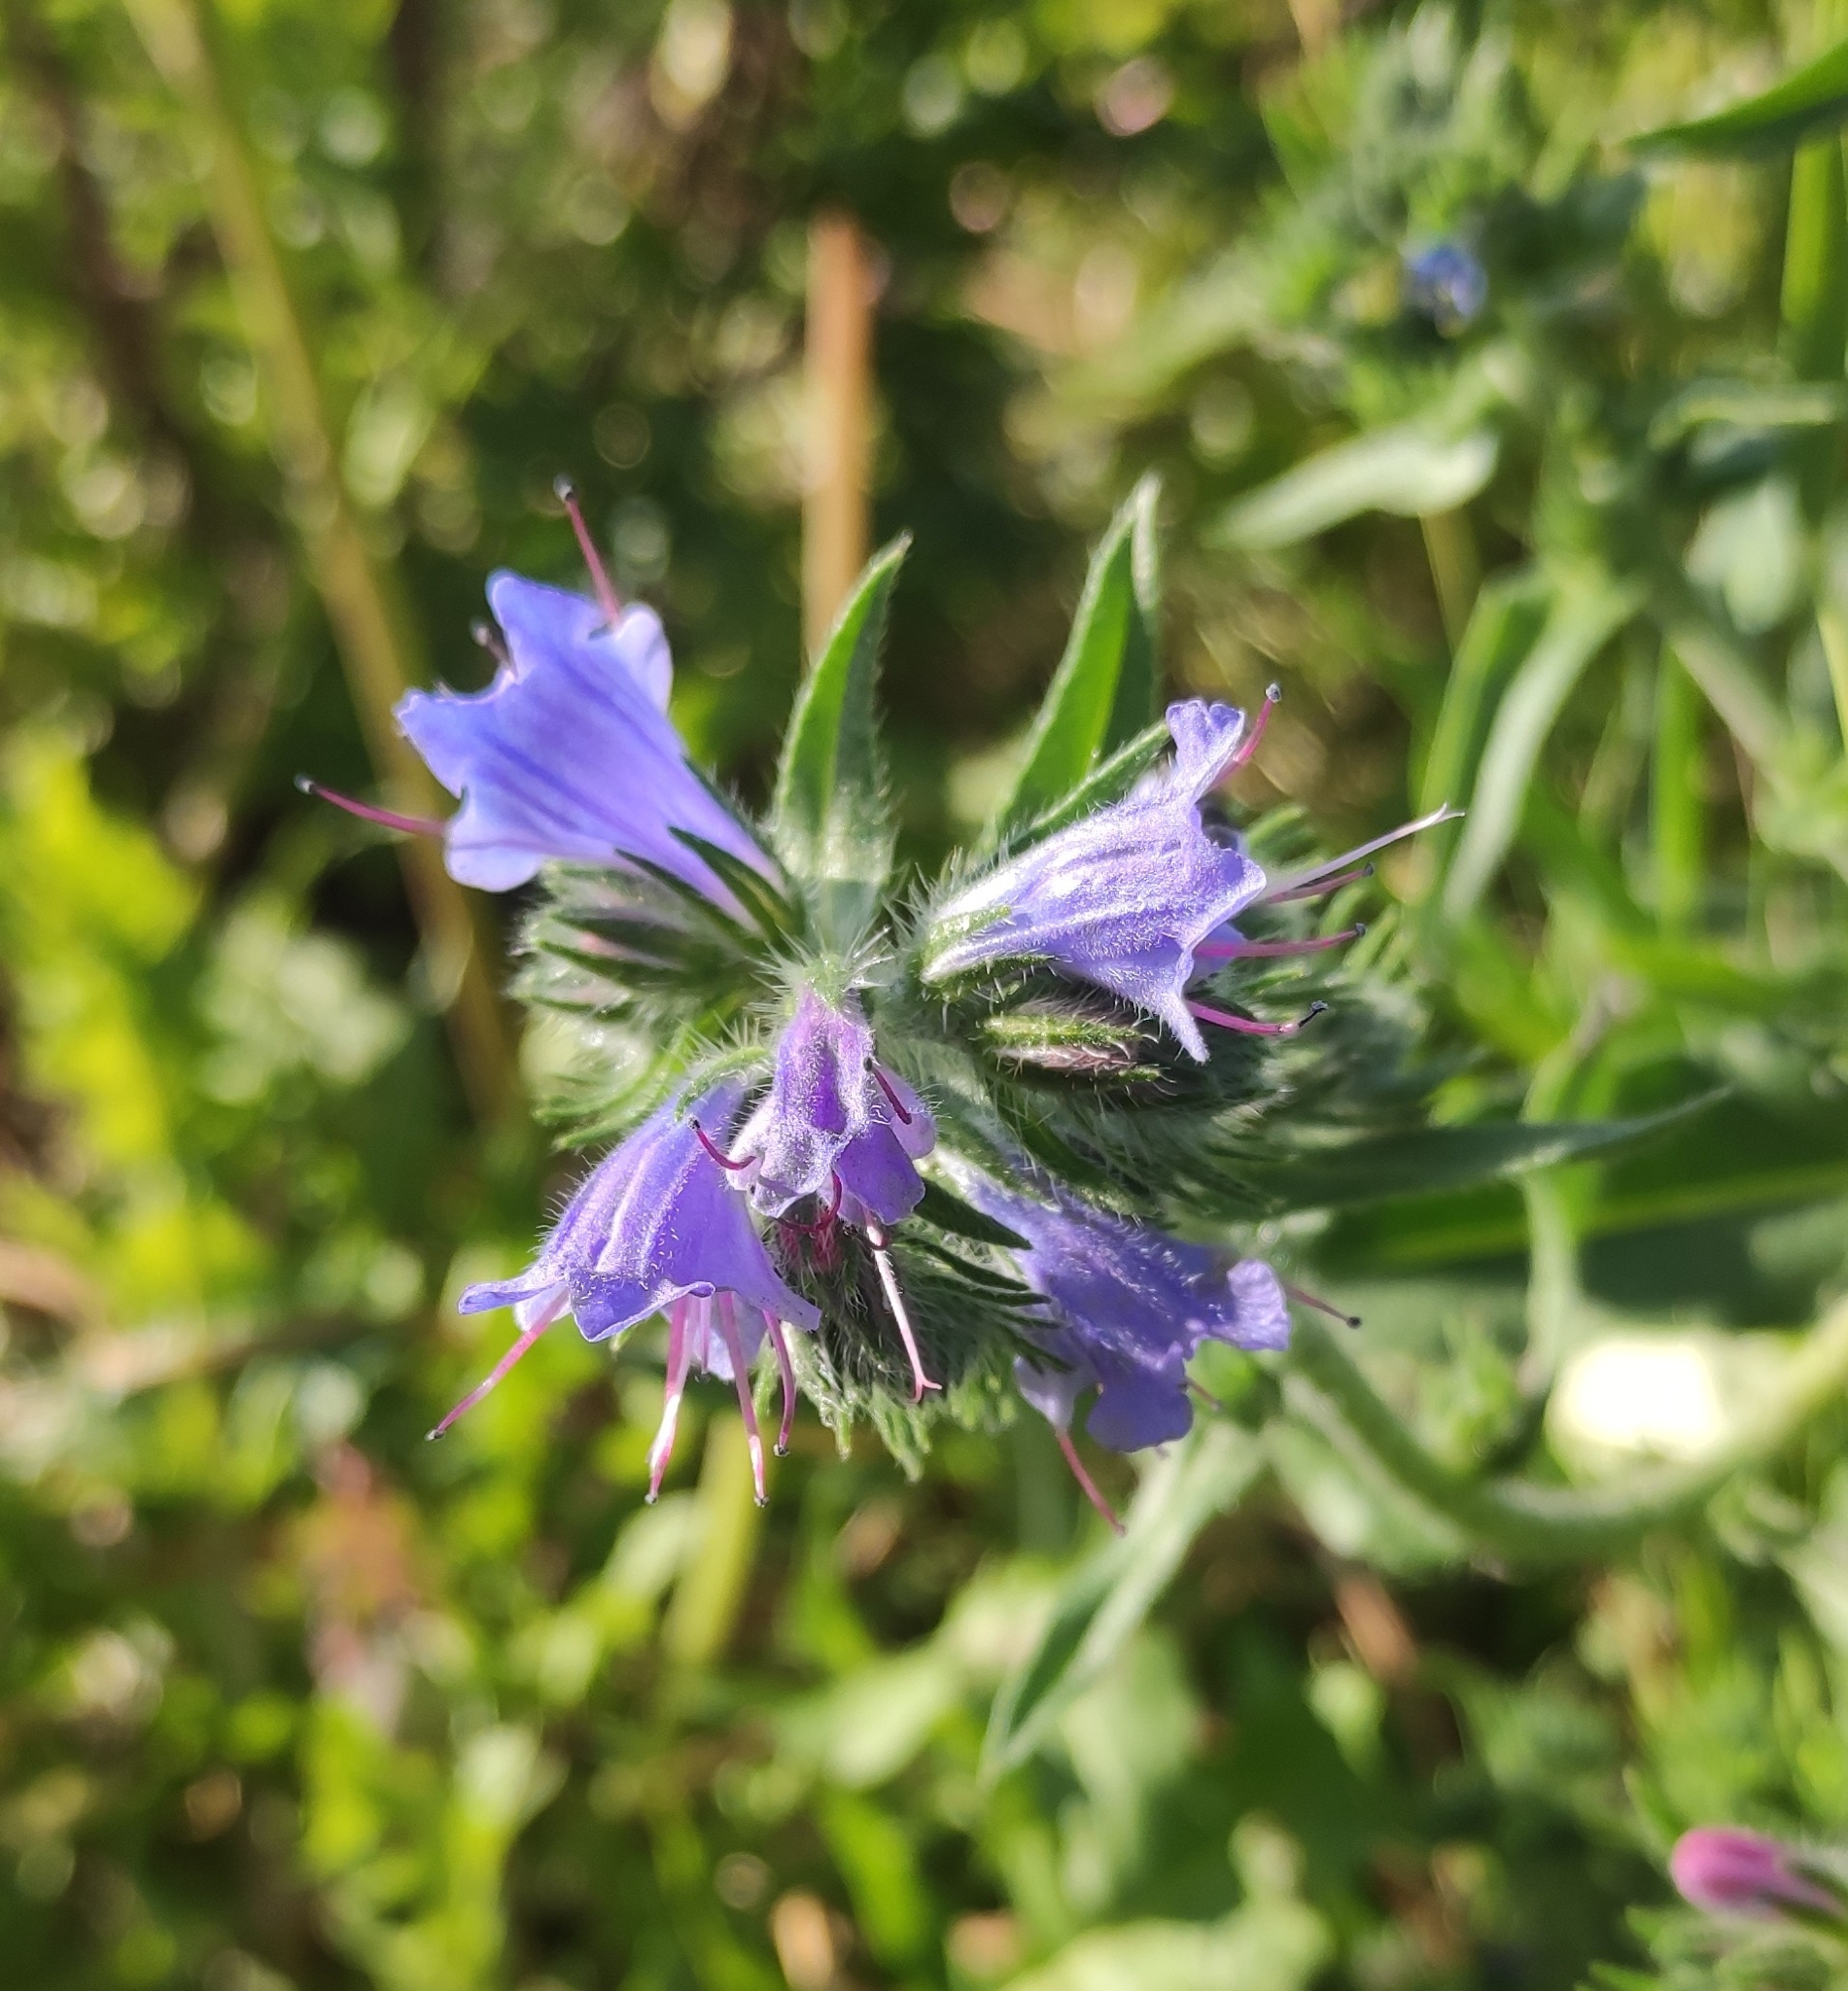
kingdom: Plantae
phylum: Tracheophyta
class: Magnoliopsida
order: Boraginales
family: Boraginaceae
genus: Echium
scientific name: Echium vulgare
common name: Common viper's bugloss
